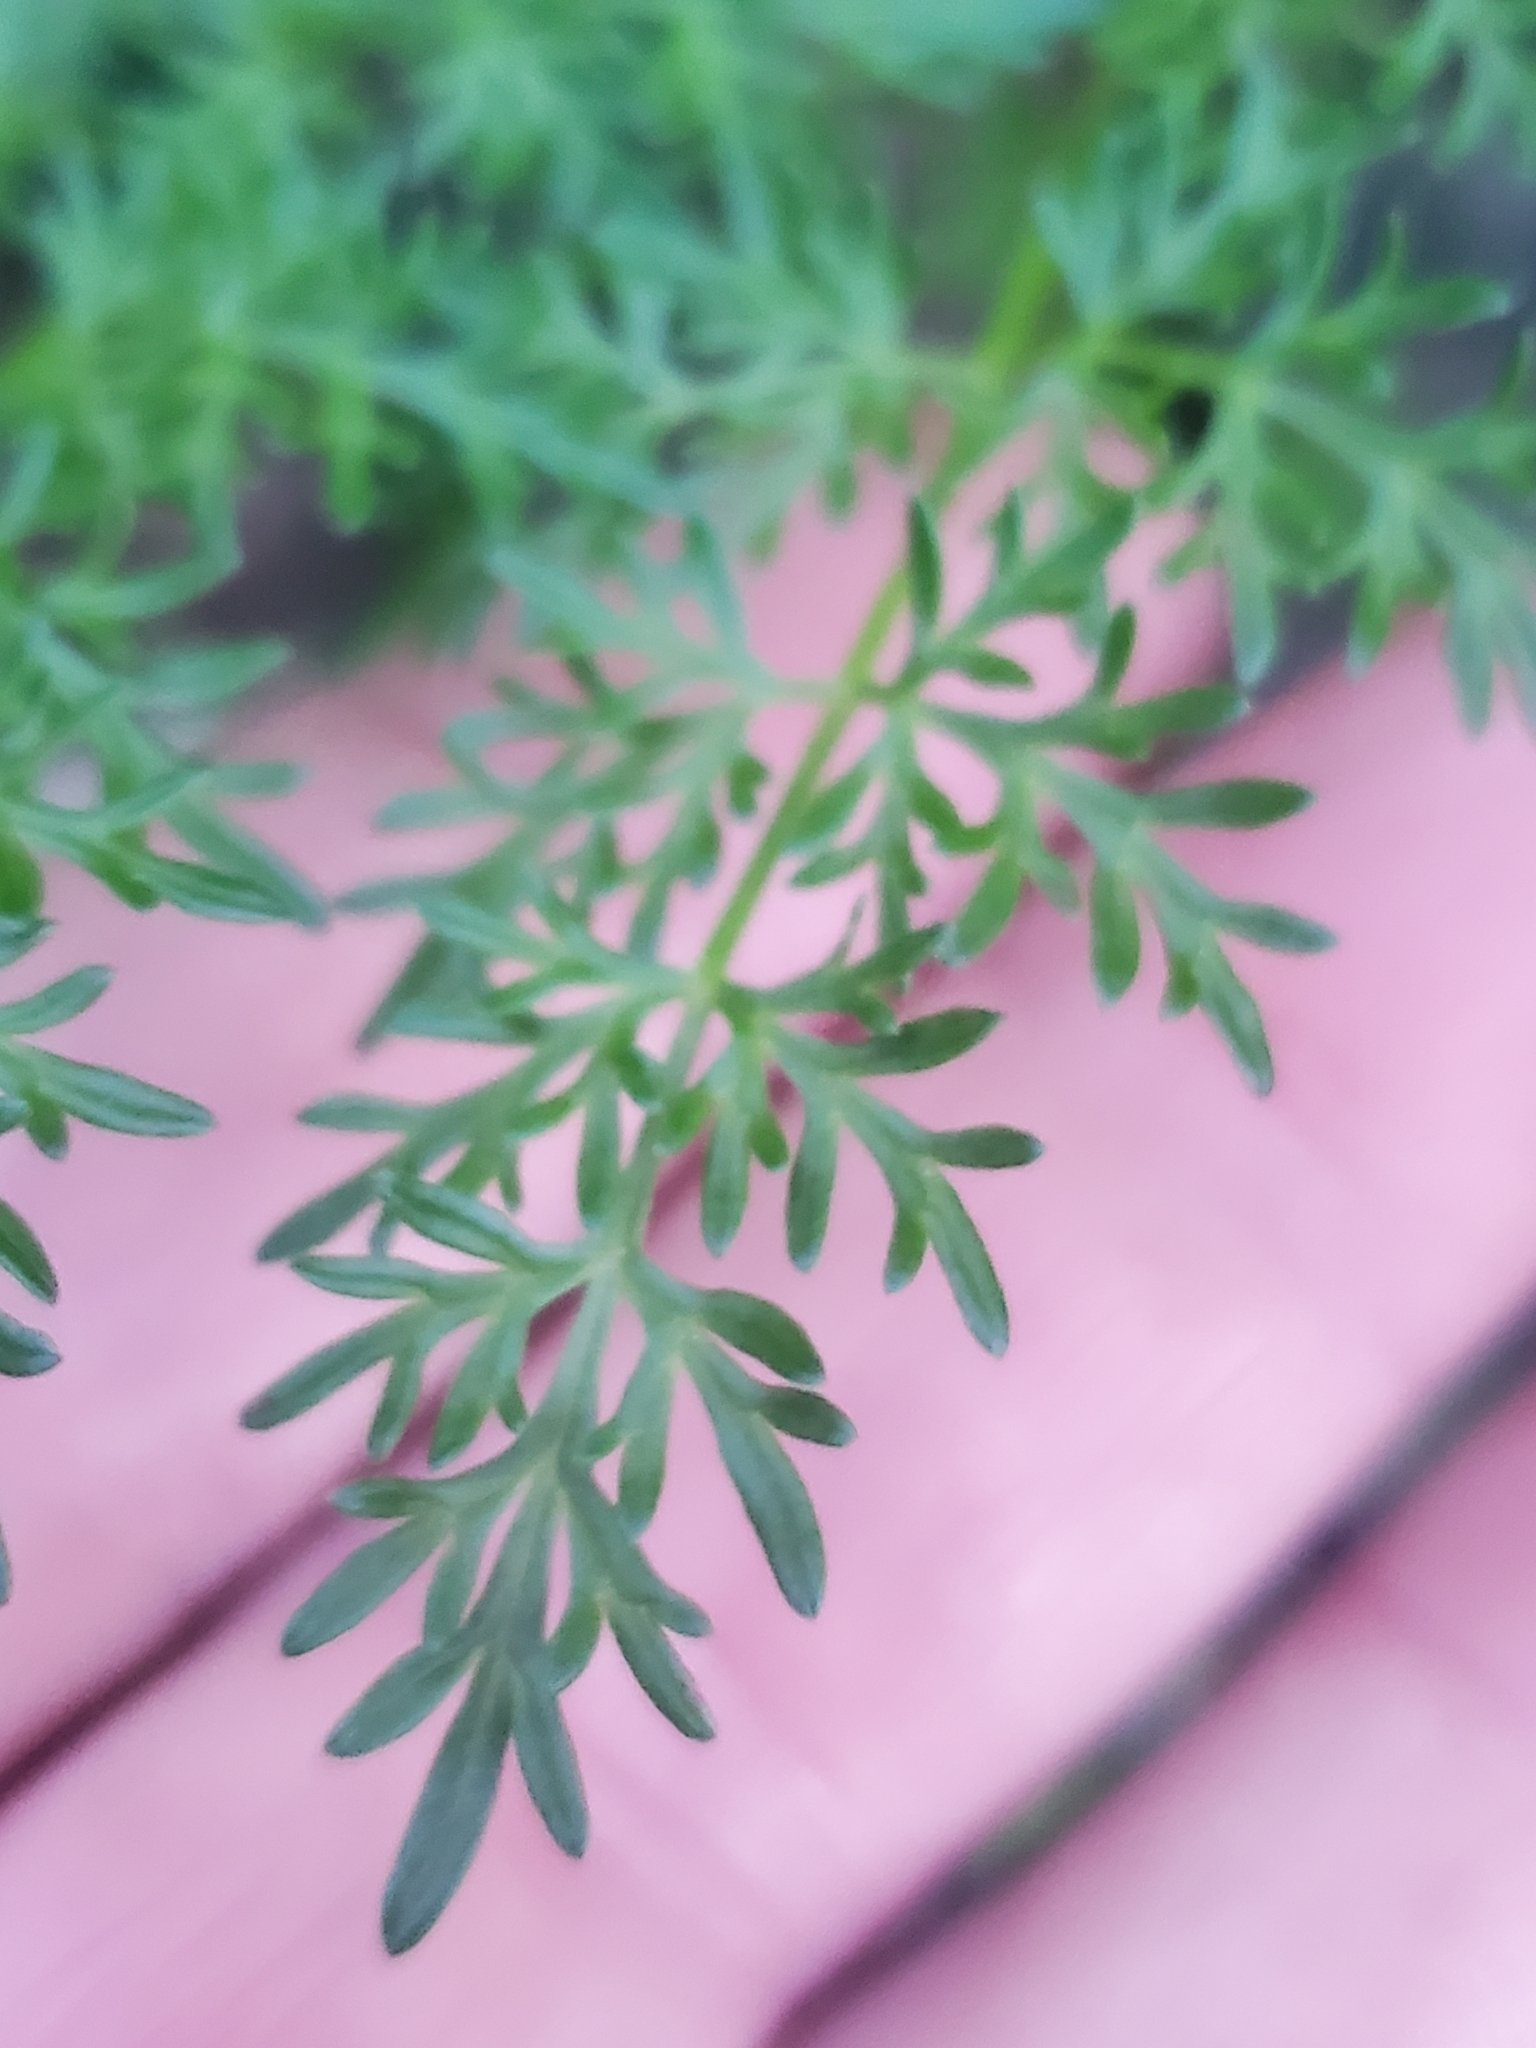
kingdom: Plantae
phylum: Tracheophyta
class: Magnoliopsida
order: Apiales
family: Apiaceae
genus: Lomatium
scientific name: Lomatium multifidum
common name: Carrot-leaved biscuitroot
